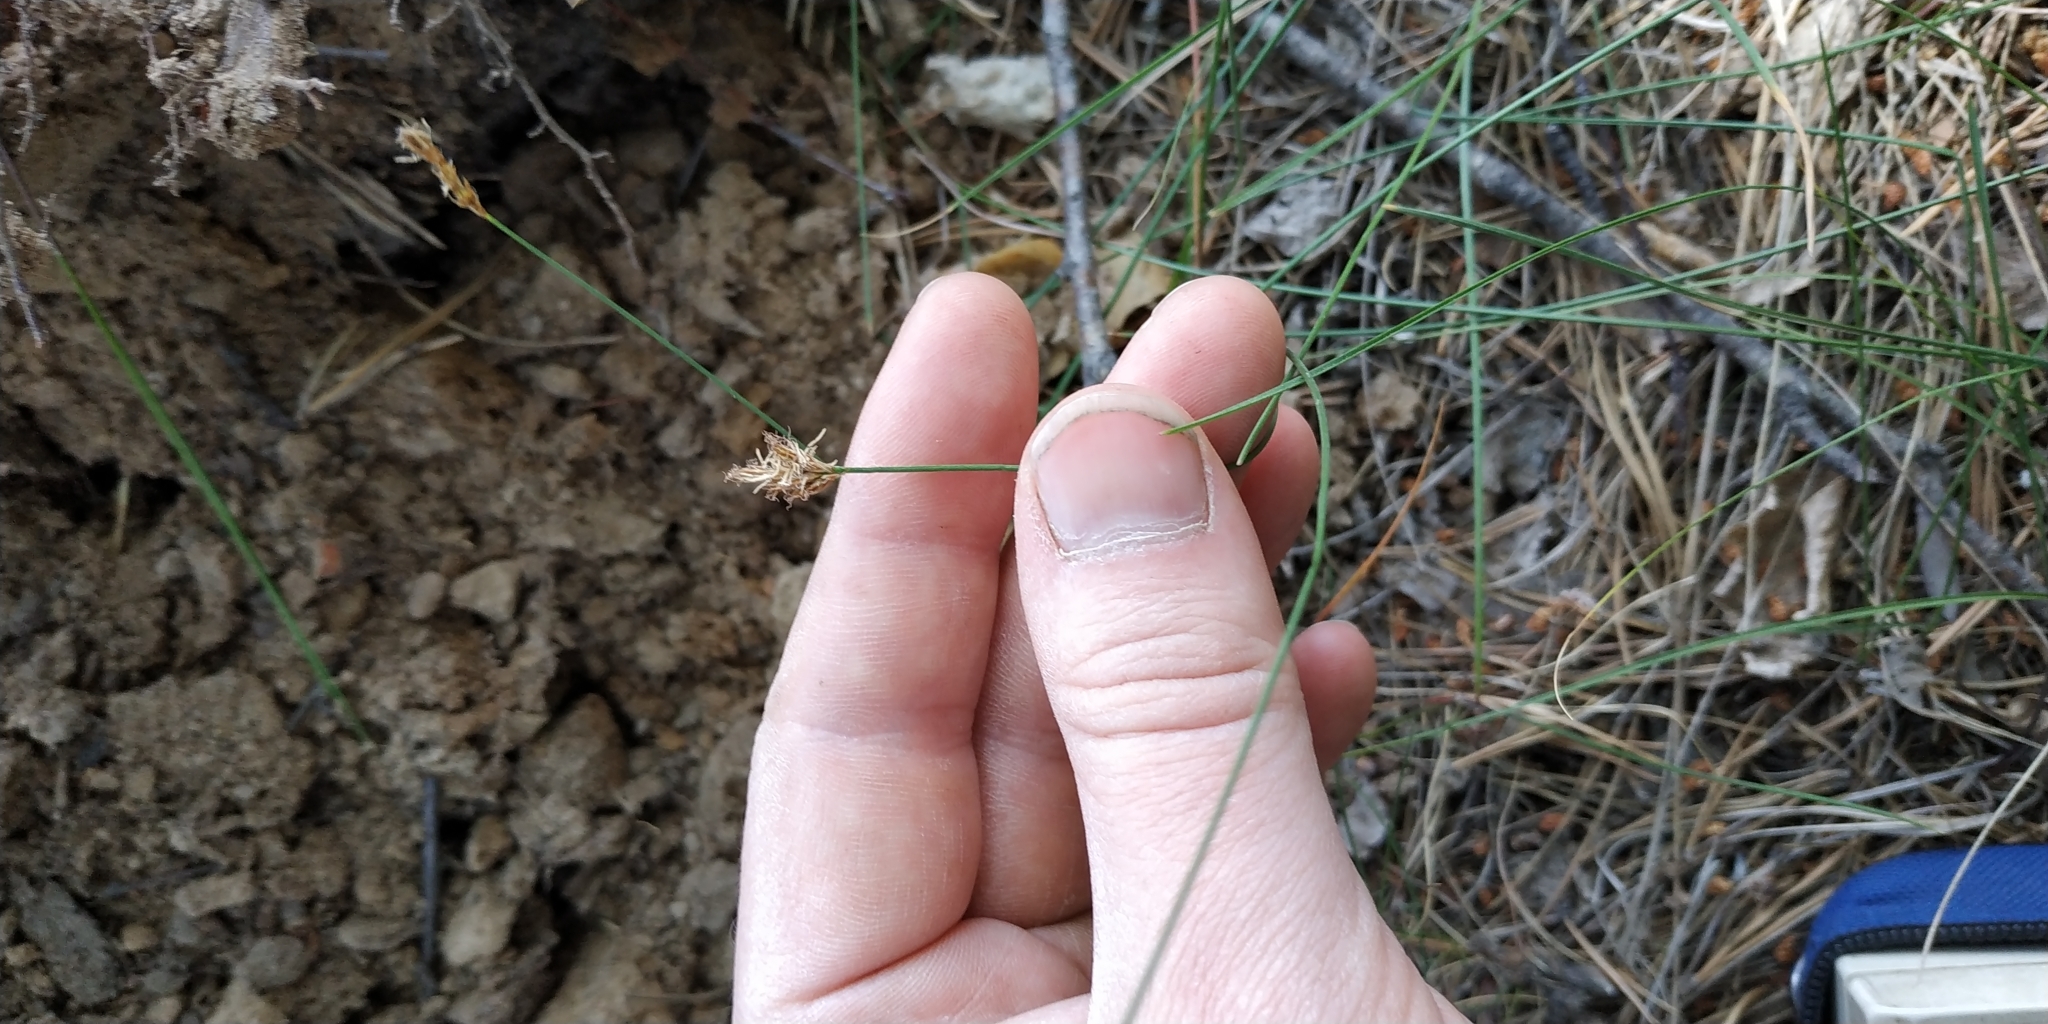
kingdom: Plantae
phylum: Tracheophyta
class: Liliopsida
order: Poales
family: Cyperaceae
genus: Carex
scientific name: Carex praecox
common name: Early sedge
